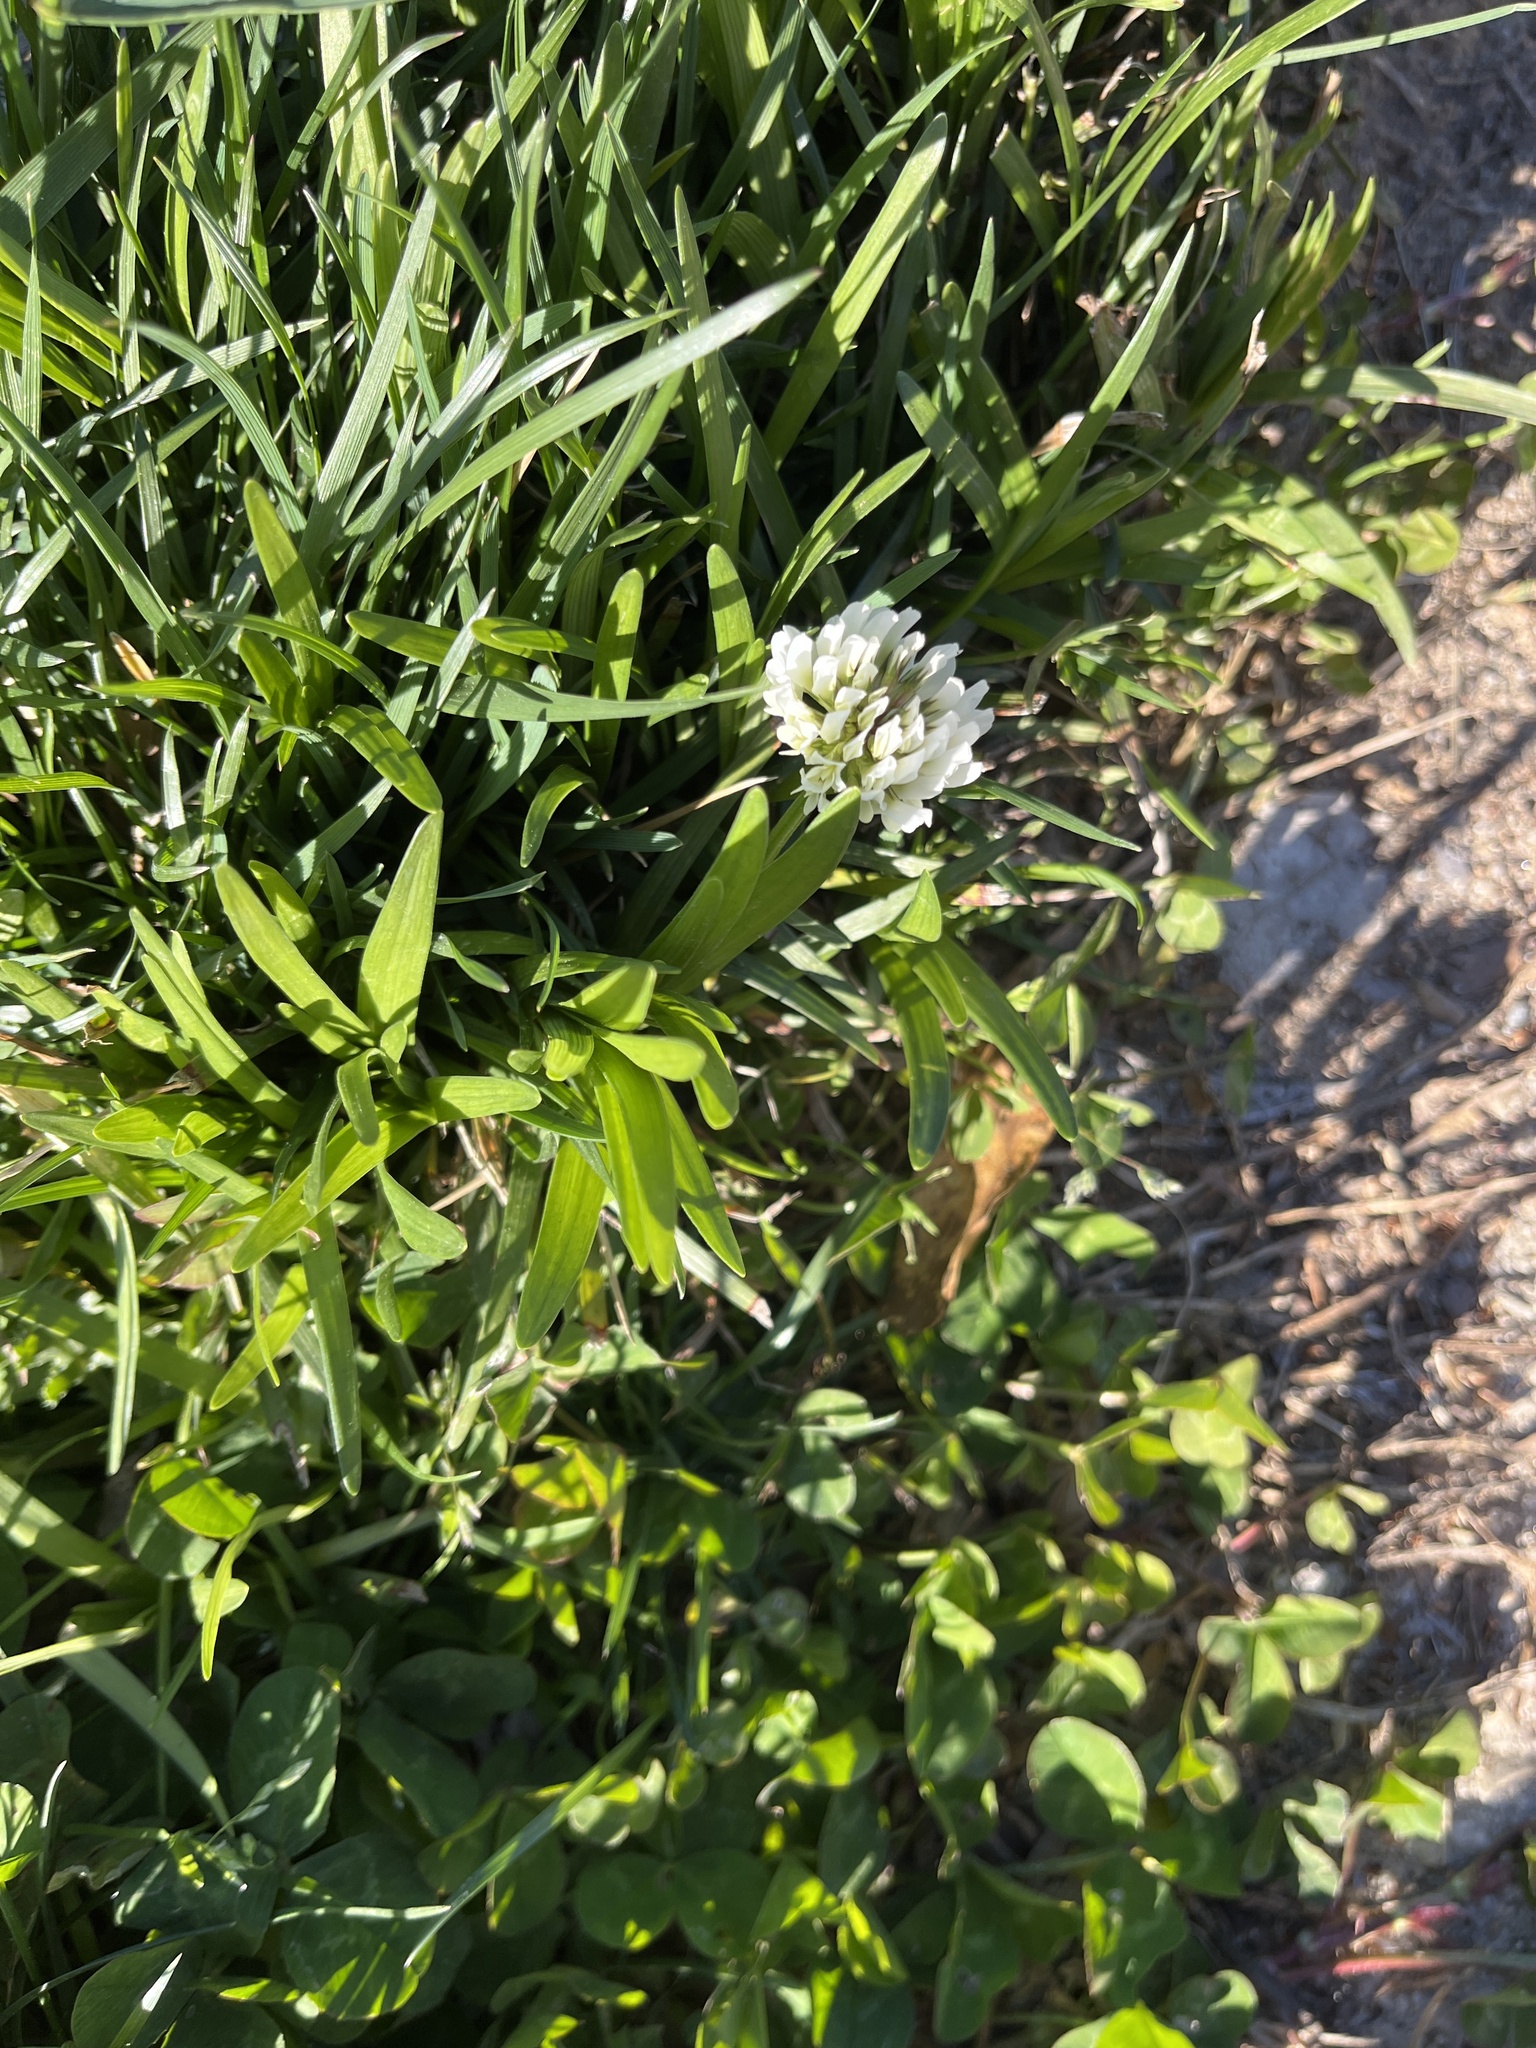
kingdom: Plantae
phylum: Tracheophyta
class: Magnoliopsida
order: Fabales
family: Fabaceae
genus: Trifolium
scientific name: Trifolium repens
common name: White clover
